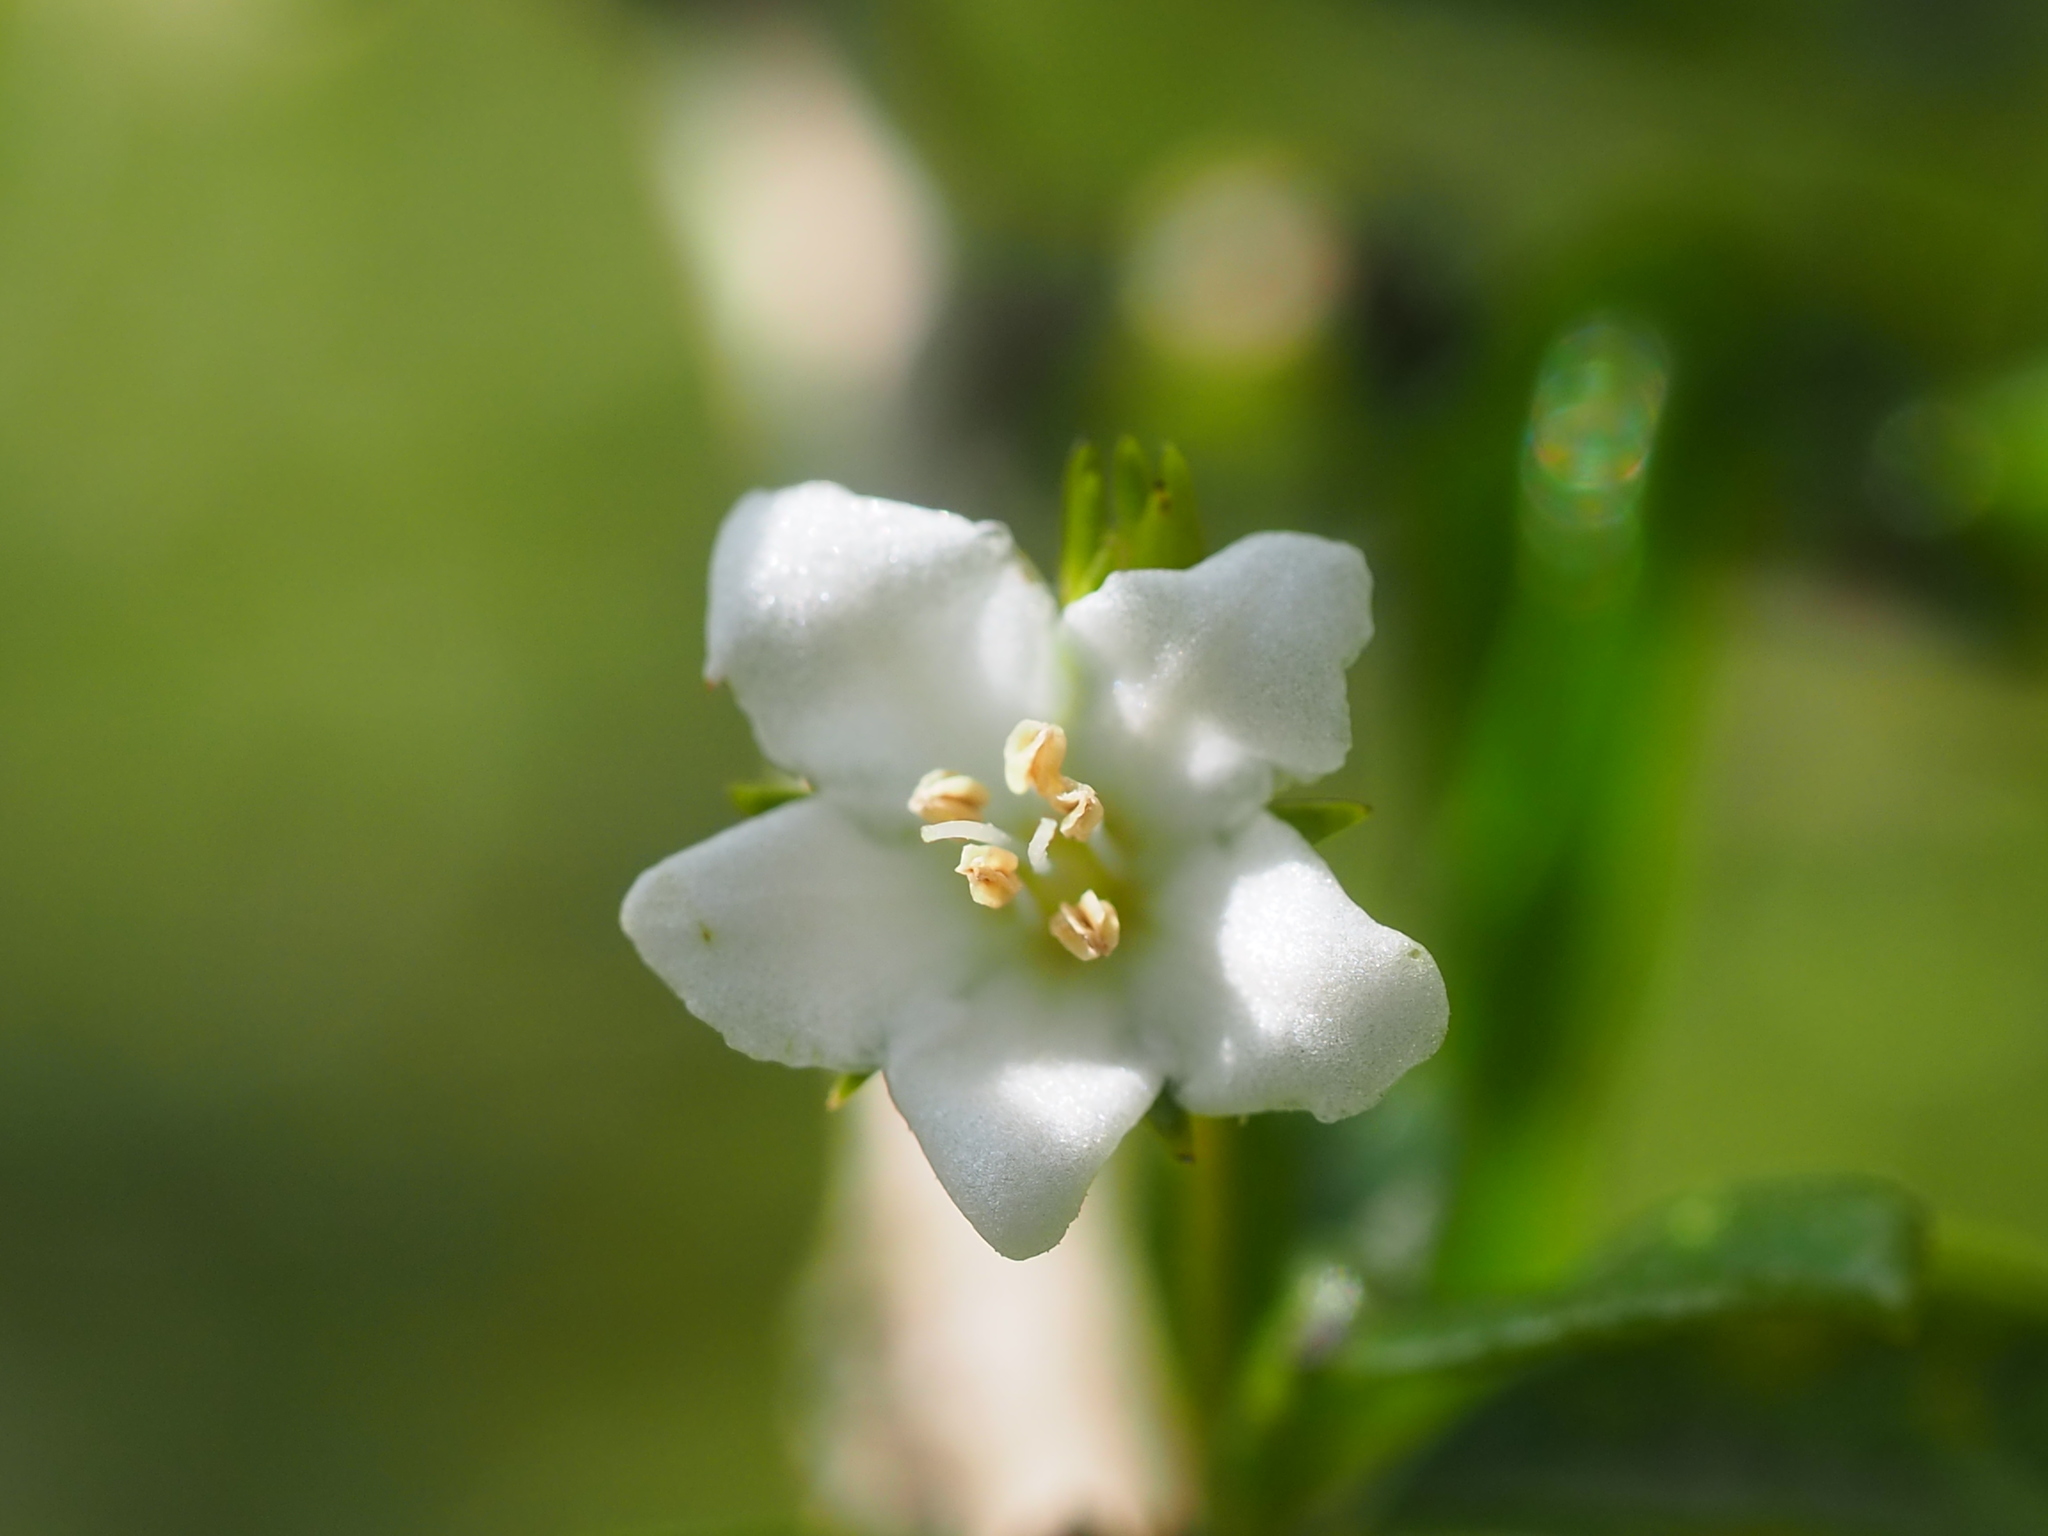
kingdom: Plantae
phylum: Tracheophyta
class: Magnoliopsida
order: Boraginales
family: Ehretiaceae
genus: Ehretia
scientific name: Ehretia microphylla
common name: Fukien-tea
